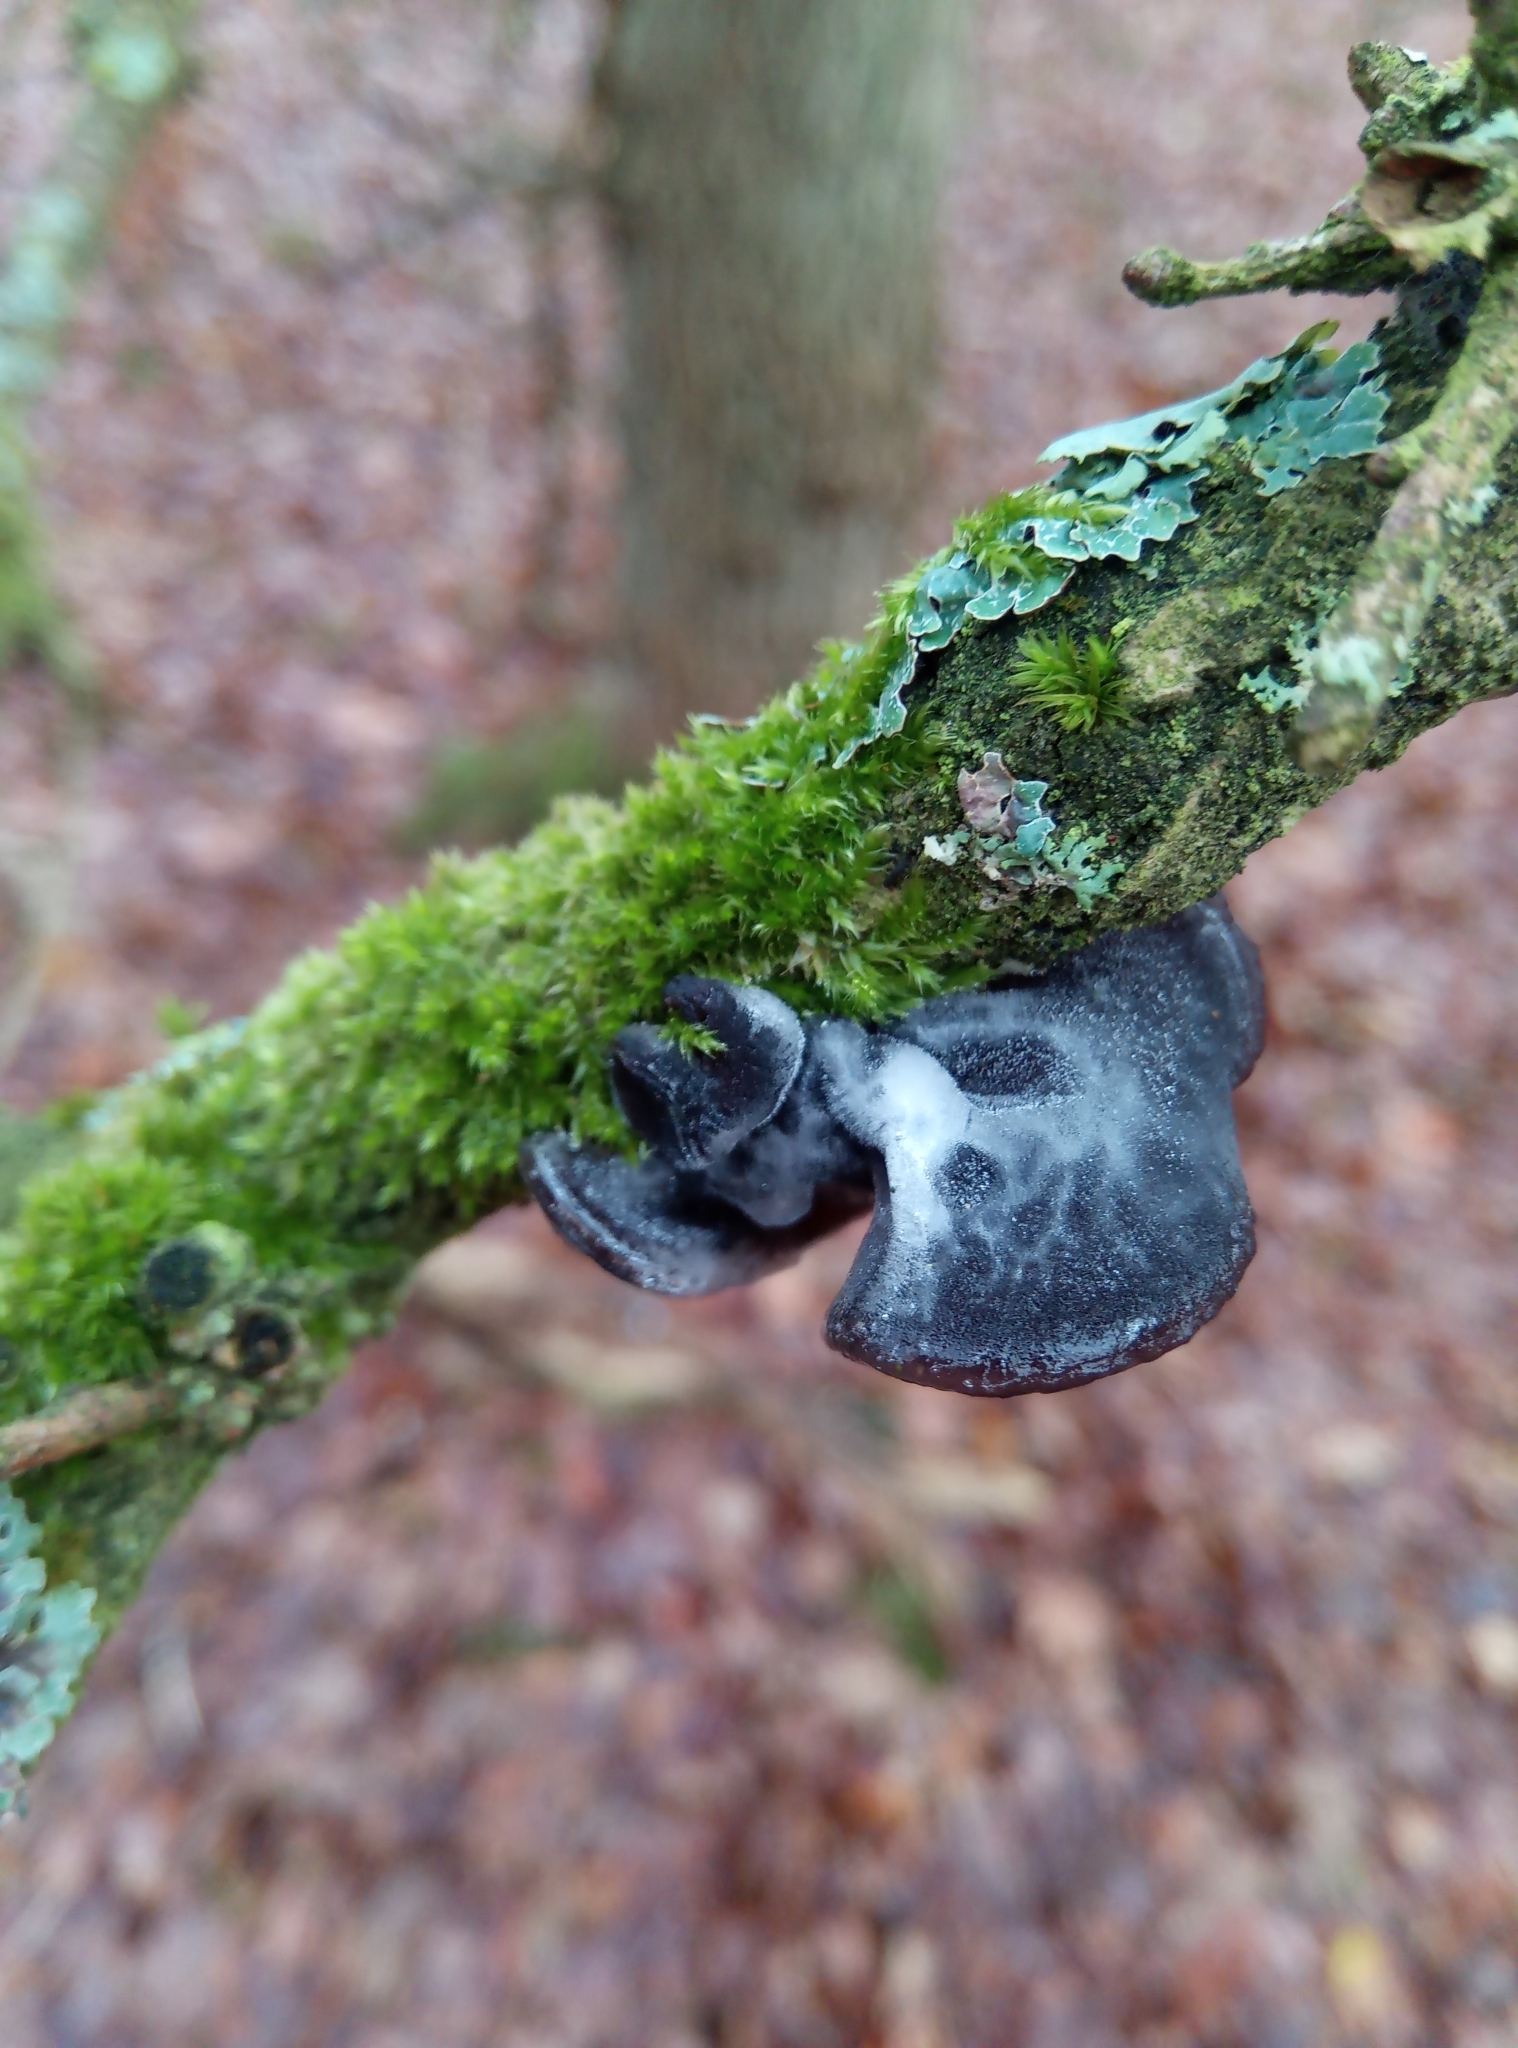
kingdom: Fungi
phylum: Basidiomycota
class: Agaricomycetes
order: Auriculariales
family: Auriculariaceae
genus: Exidia
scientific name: Exidia glandulosa
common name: Witches' butter
